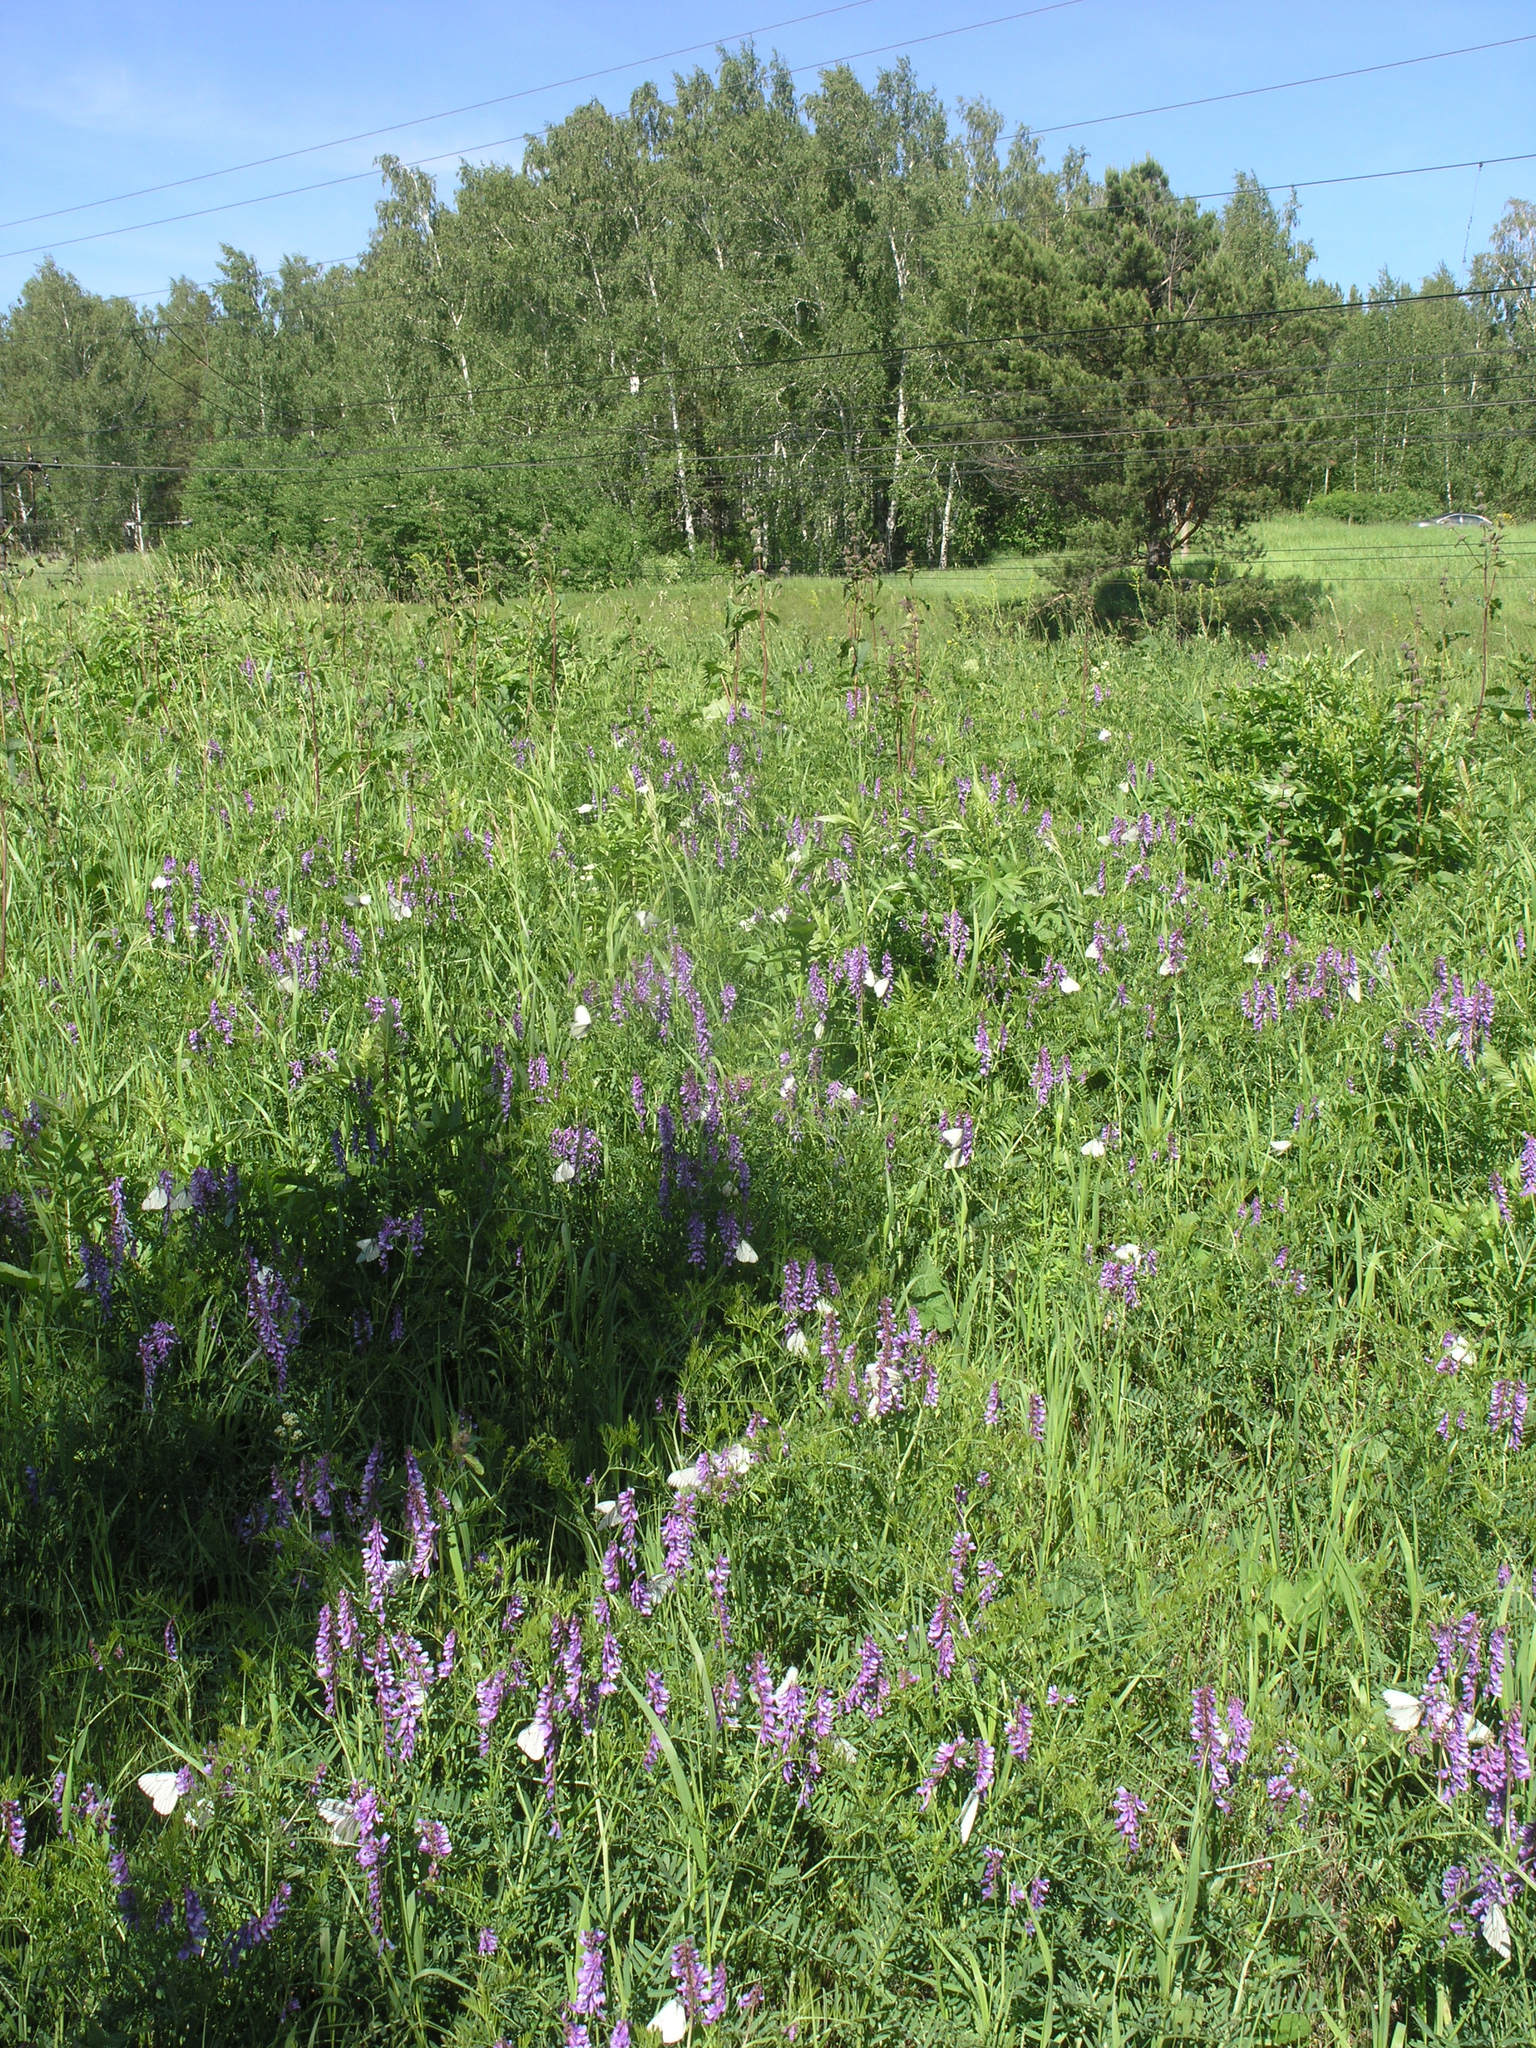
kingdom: Animalia
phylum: Arthropoda
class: Insecta
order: Lepidoptera
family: Pieridae
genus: Aporia
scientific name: Aporia crataegi
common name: Black-veined white
